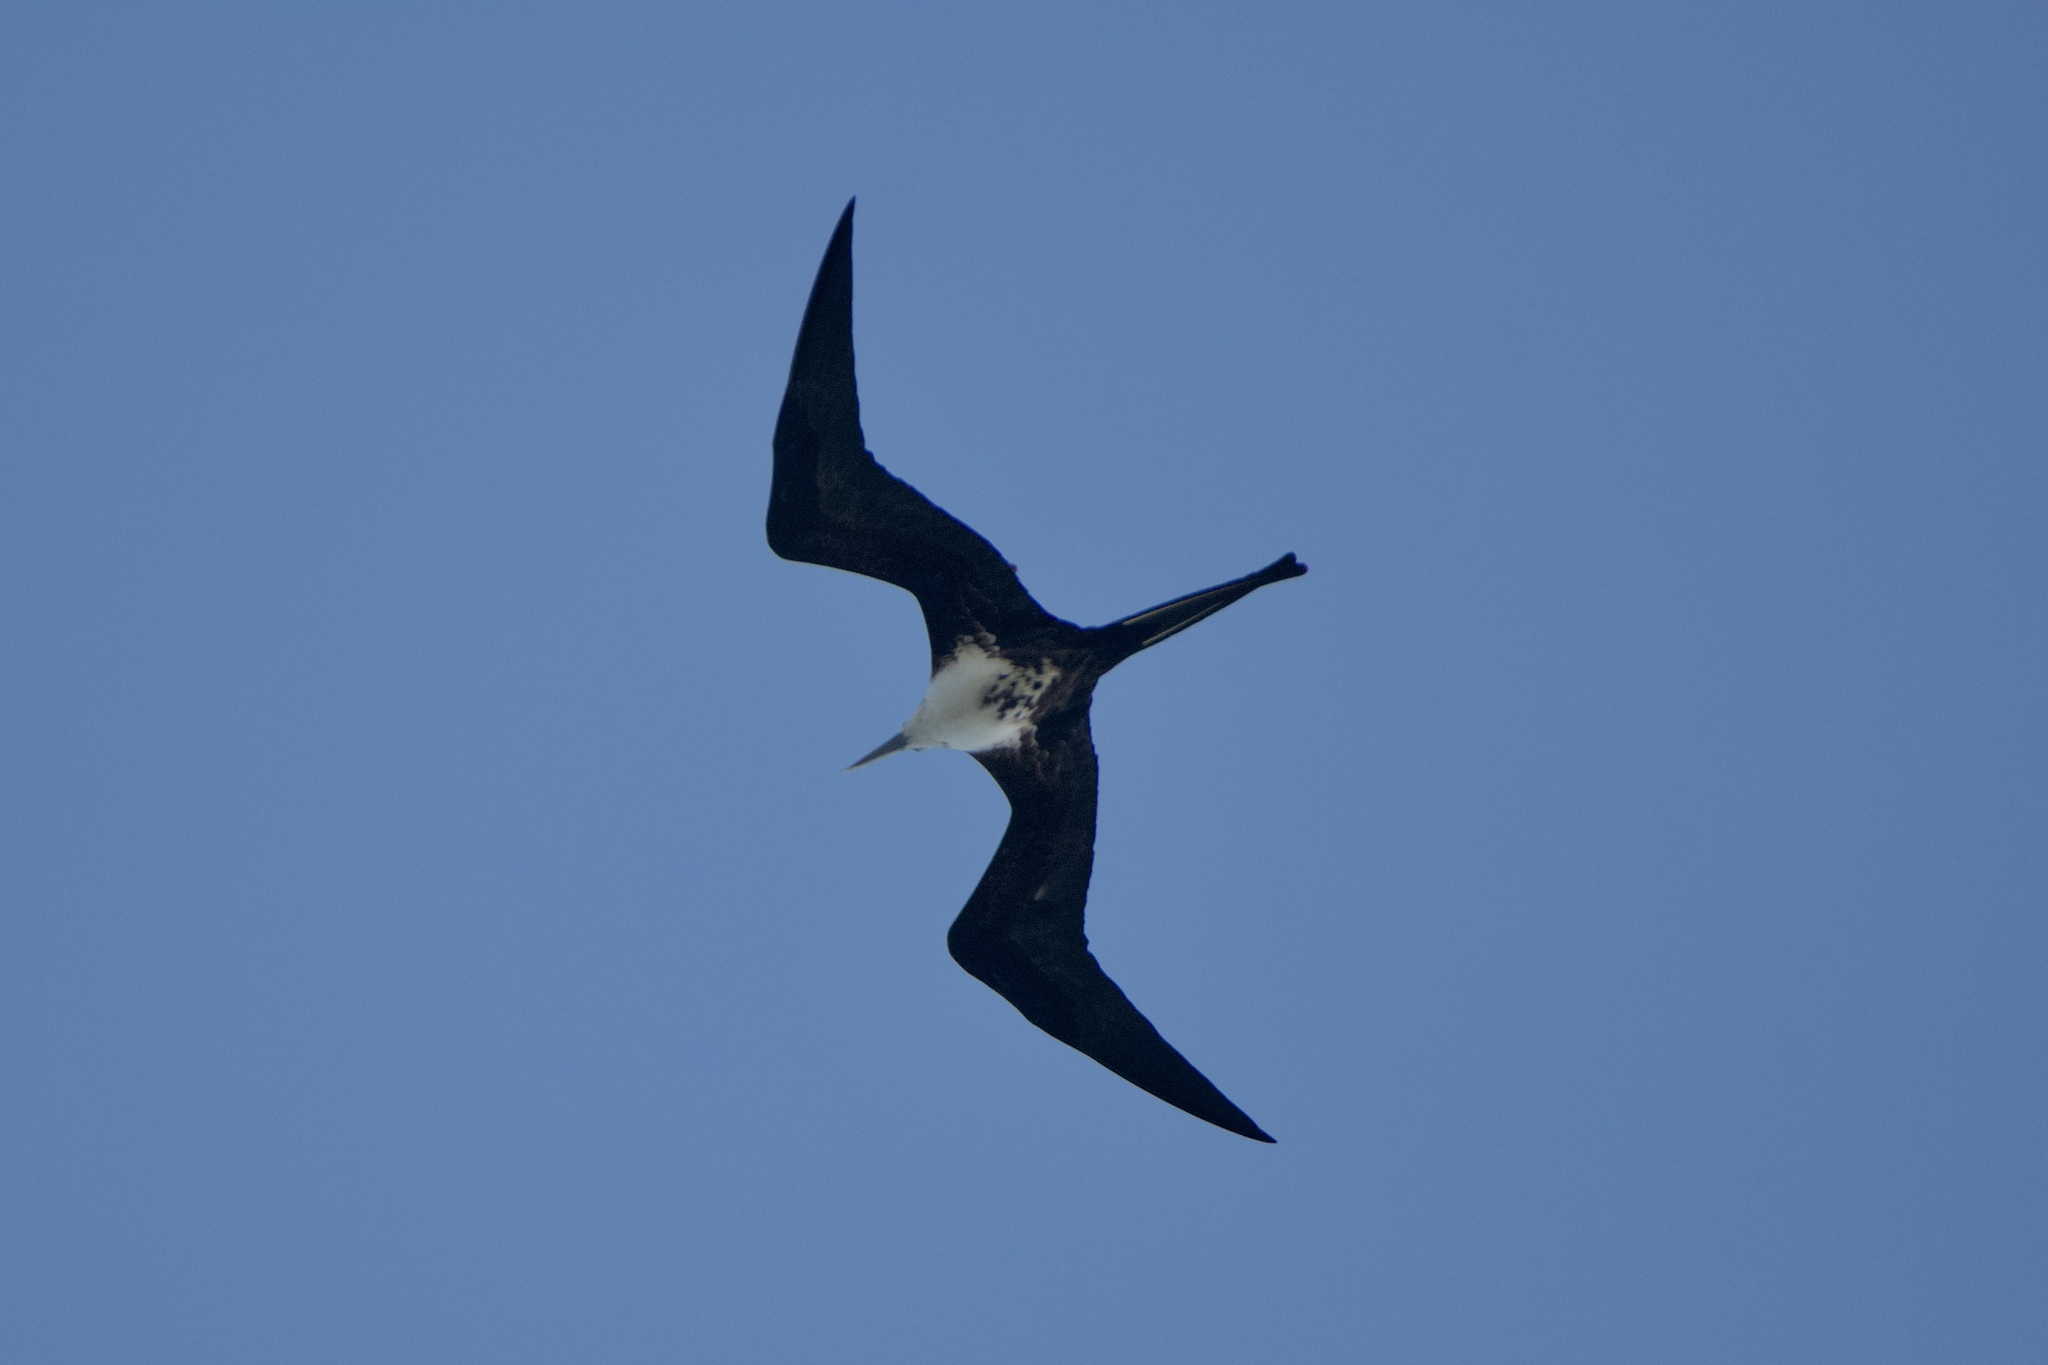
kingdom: Animalia
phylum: Chordata
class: Aves
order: Suliformes
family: Fregatidae
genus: Fregata
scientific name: Fregata magnificens
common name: Magnificent frigatebird
